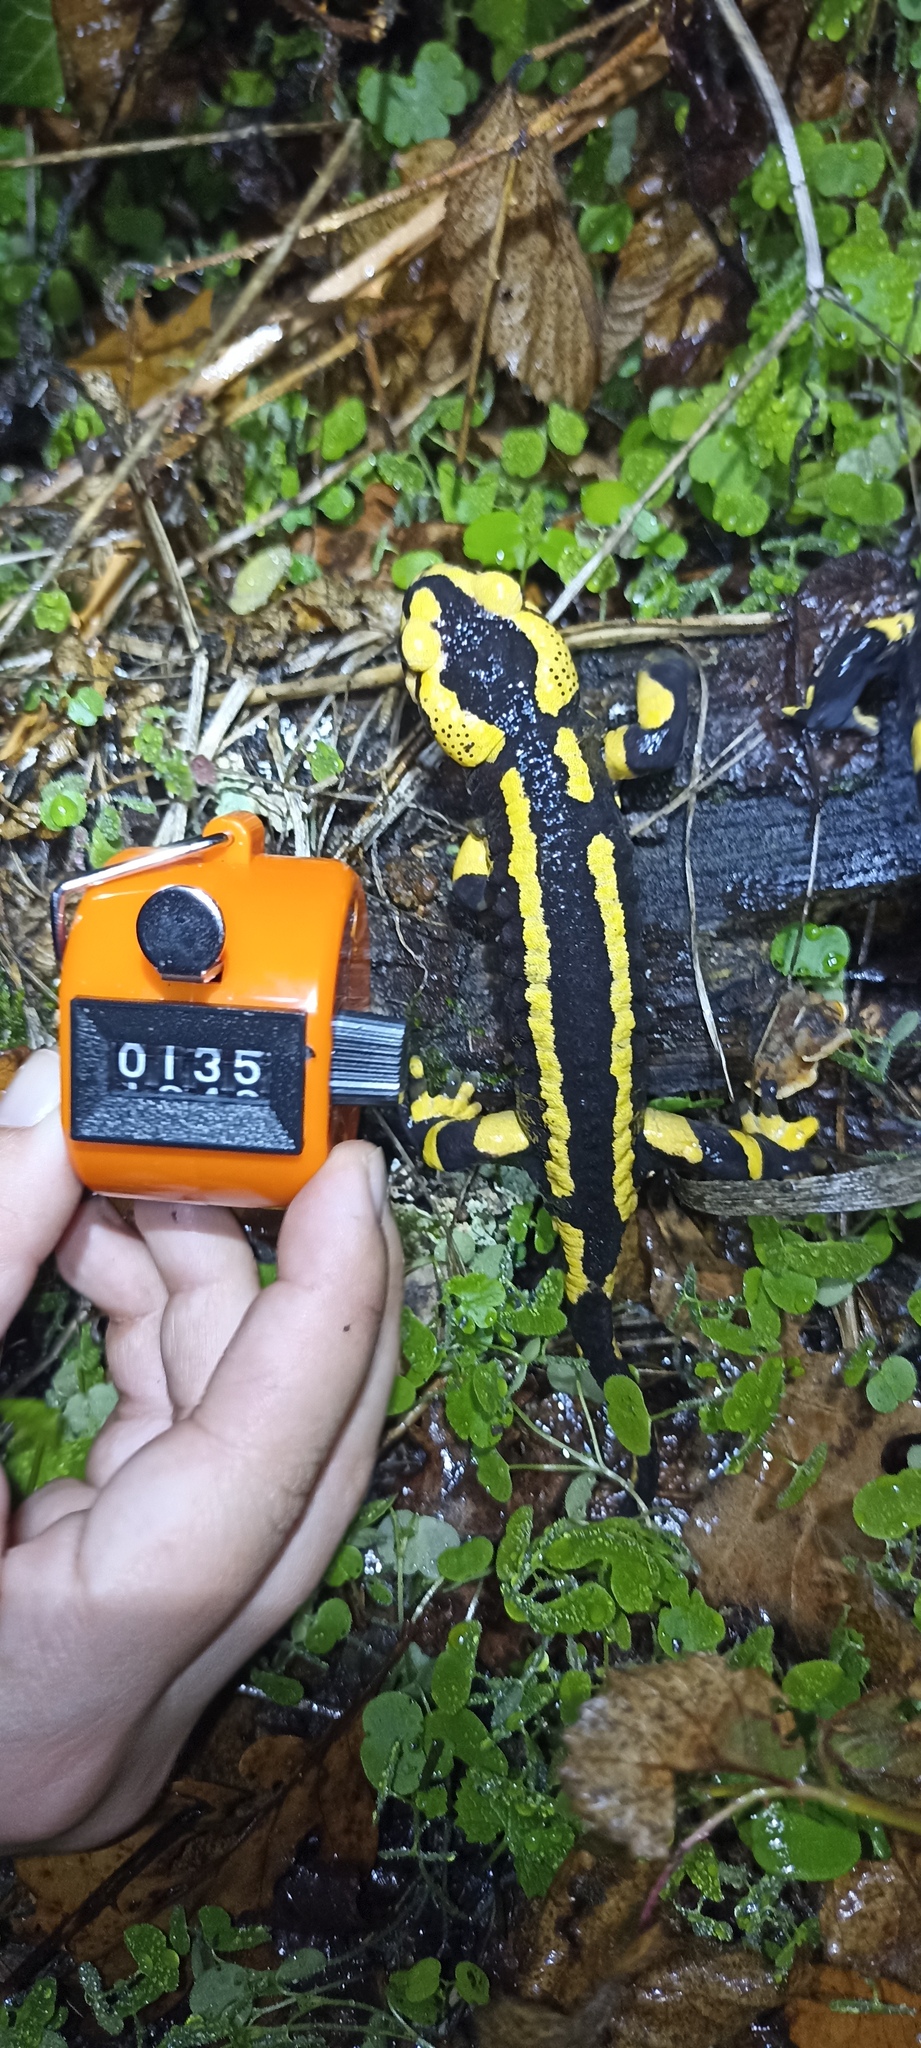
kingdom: Animalia
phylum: Chordata
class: Amphibia
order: Caudata
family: Salamandridae
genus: Salamandra
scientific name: Salamandra salamandra
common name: Fire salamander
